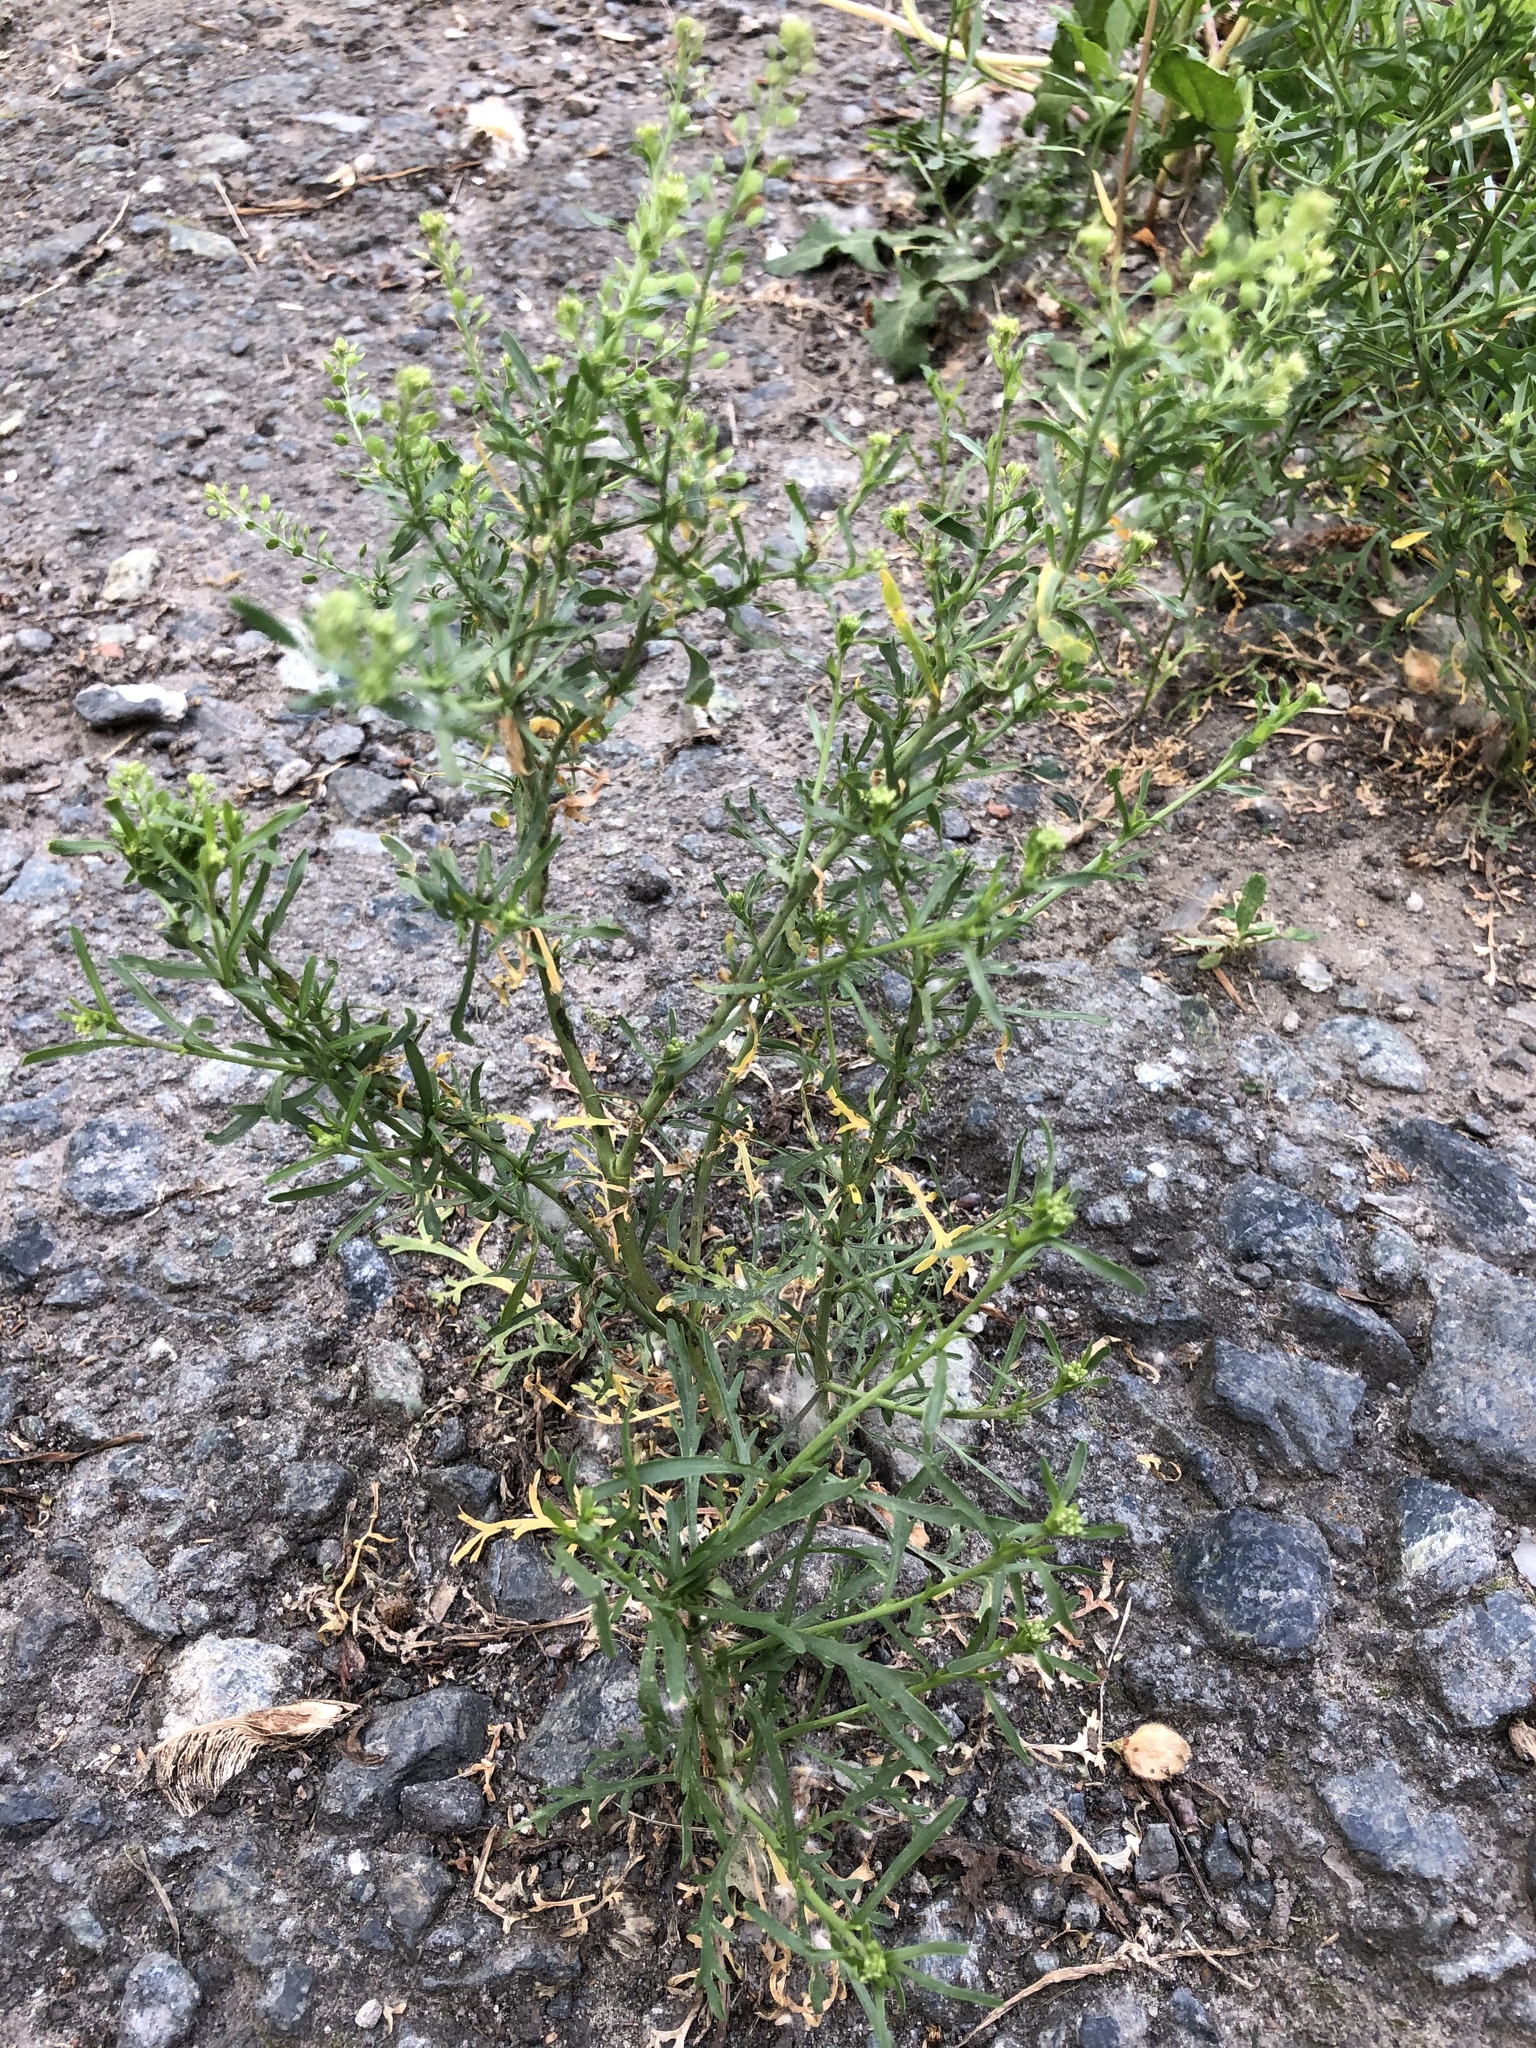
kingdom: Plantae
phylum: Tracheophyta
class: Magnoliopsida
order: Brassicales
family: Brassicaceae
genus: Lepidium
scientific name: Lepidium ruderale
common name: Narrow-leaved pepperwort
